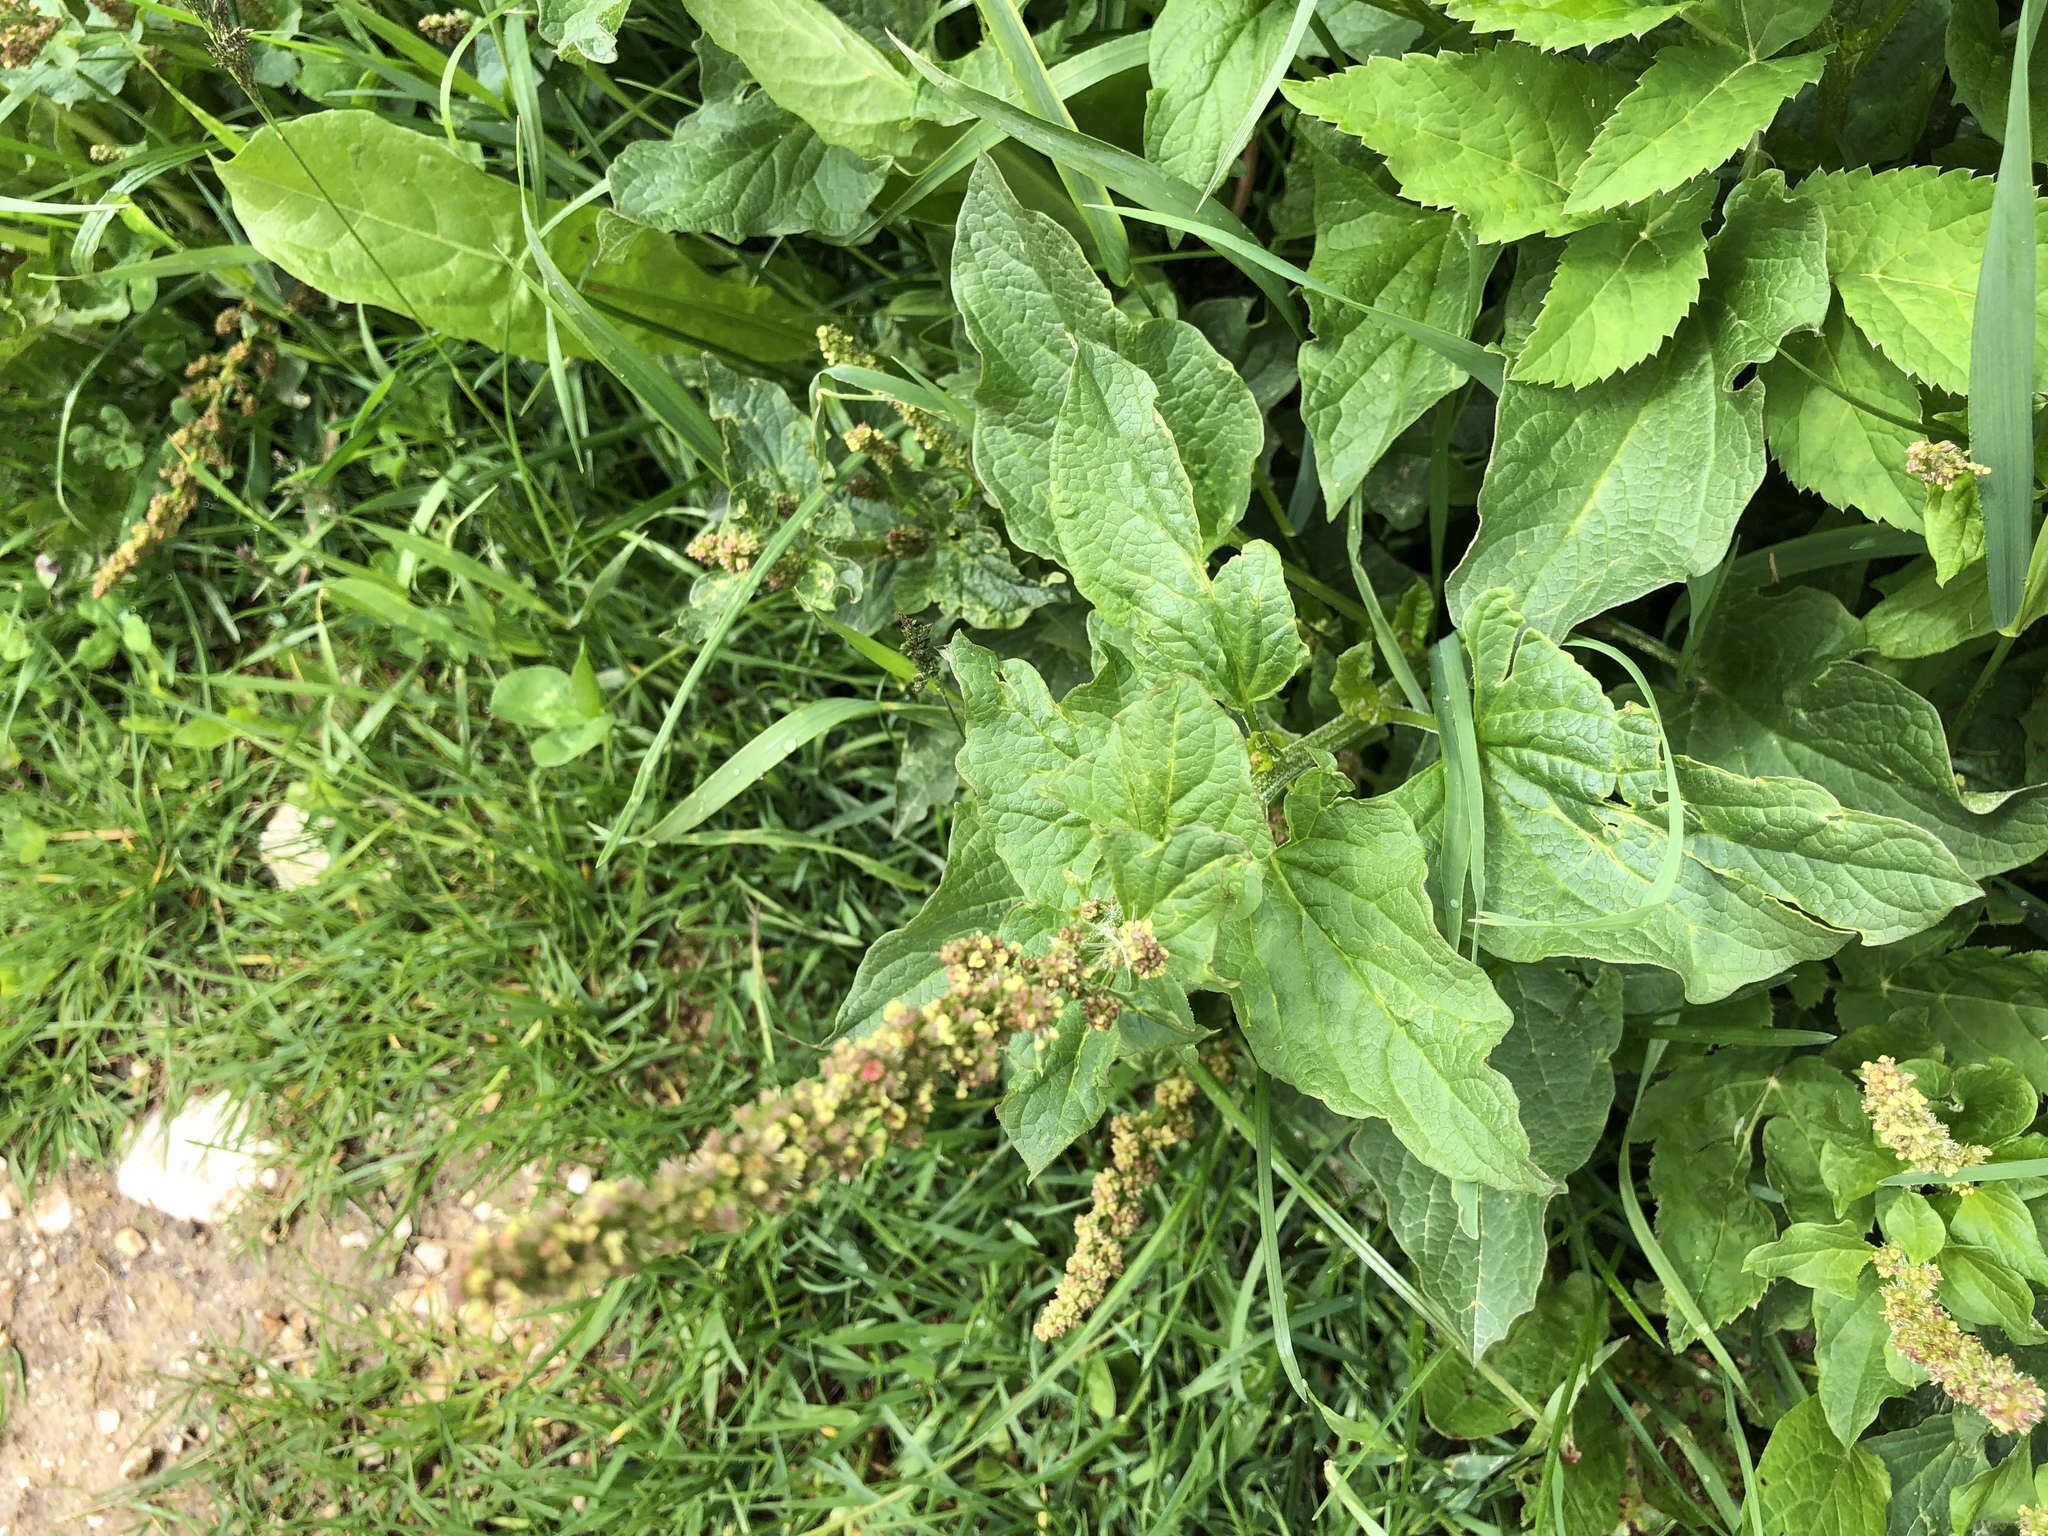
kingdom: Plantae
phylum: Tracheophyta
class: Magnoliopsida
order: Caryophyllales
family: Amaranthaceae
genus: Blitum
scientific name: Blitum bonus-henricus
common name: Good king henry
